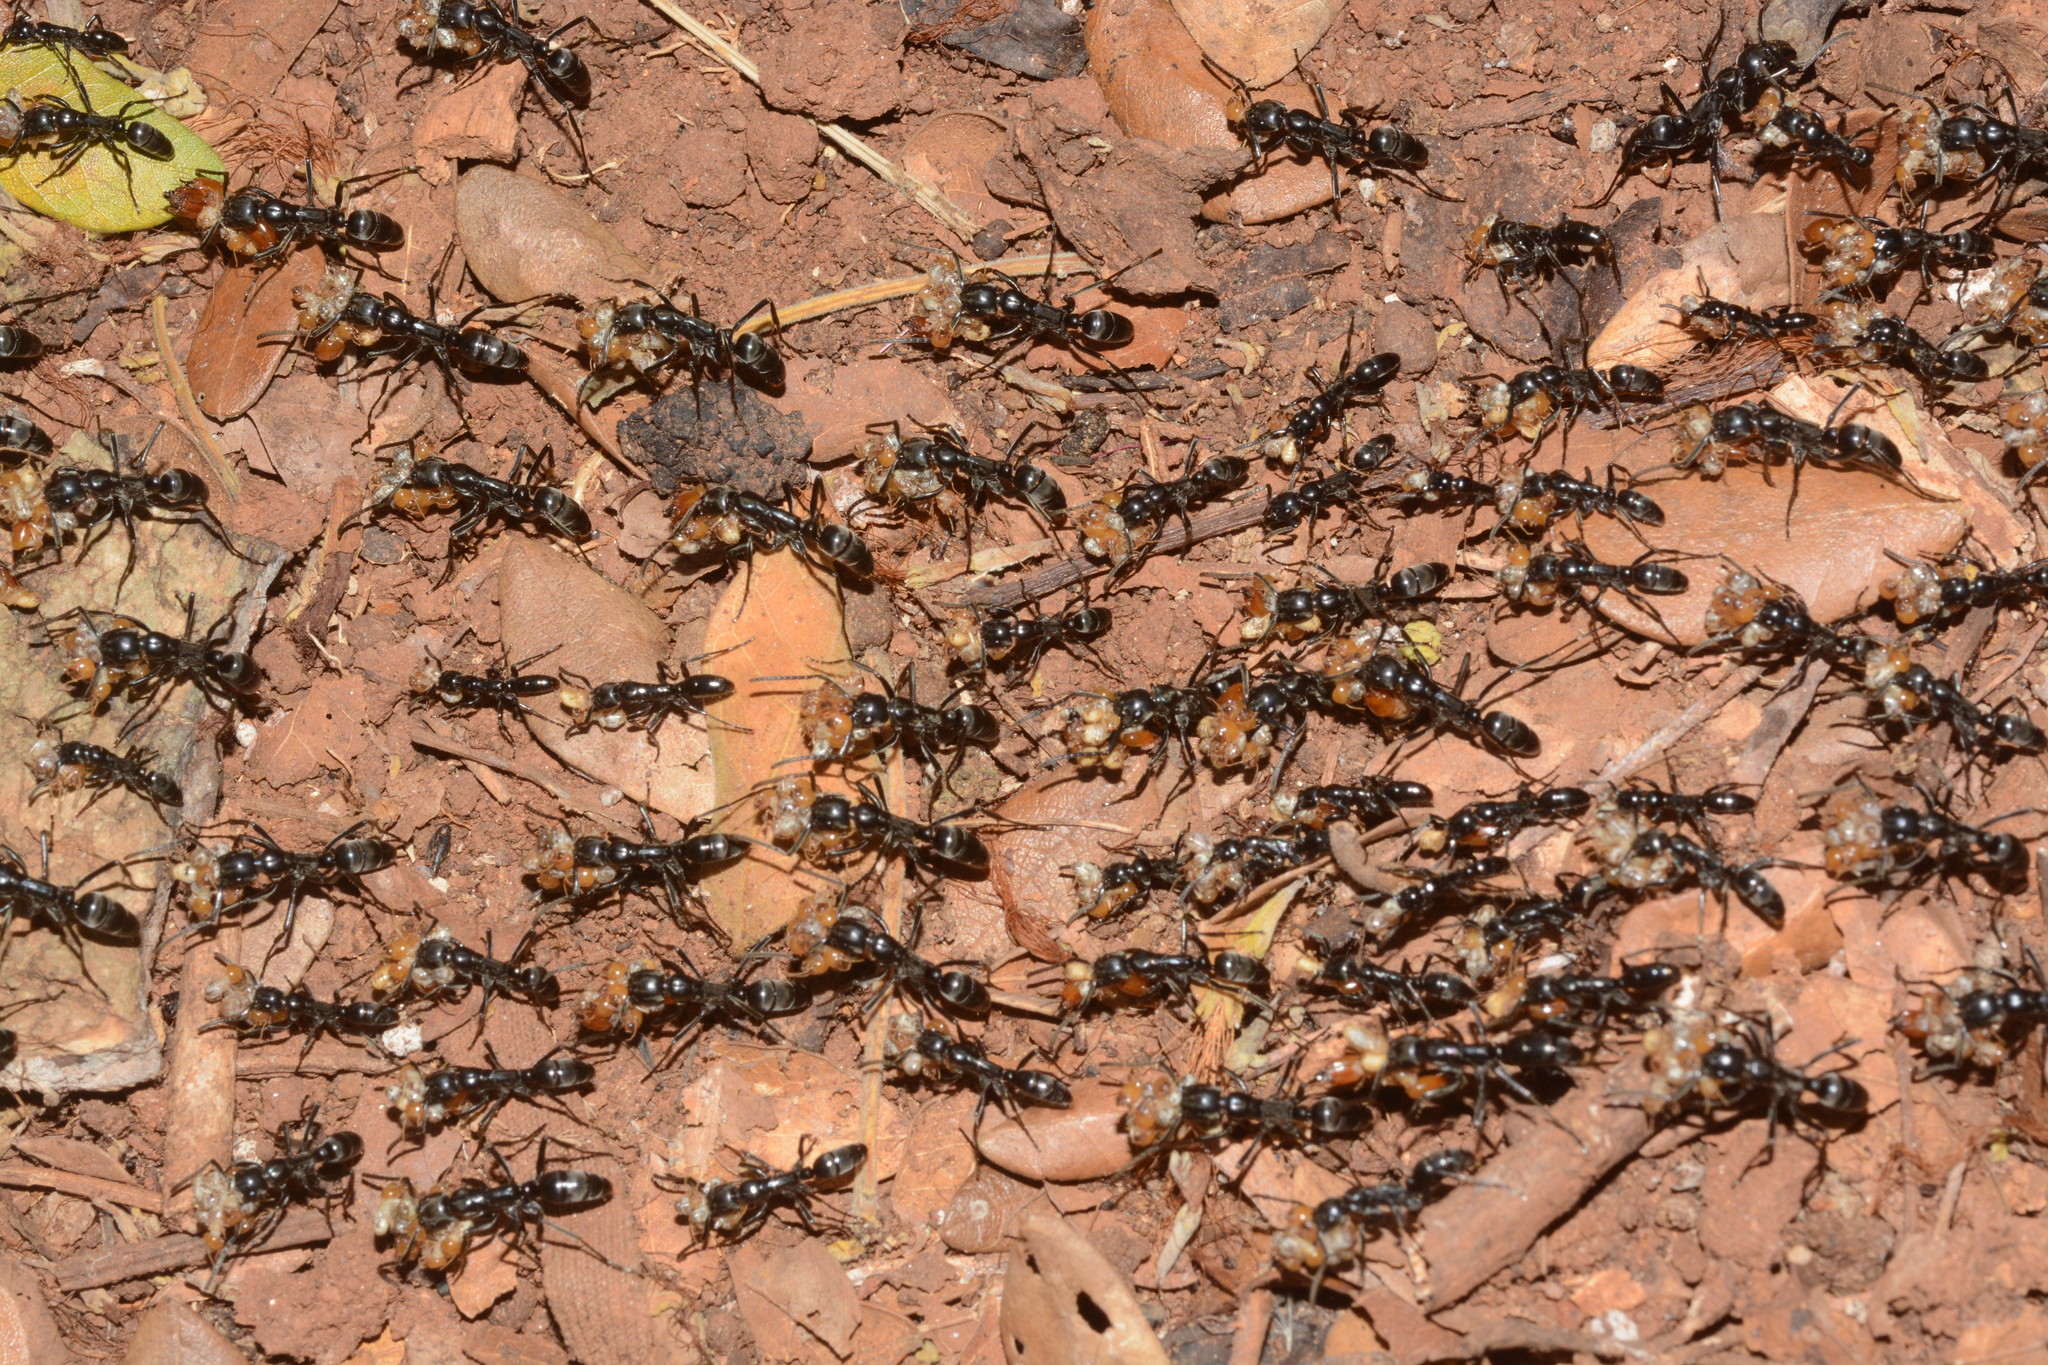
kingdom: Animalia
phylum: Arthropoda
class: Insecta
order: Hymenoptera
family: Formicidae
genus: Megaponera
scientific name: Megaponera analis
